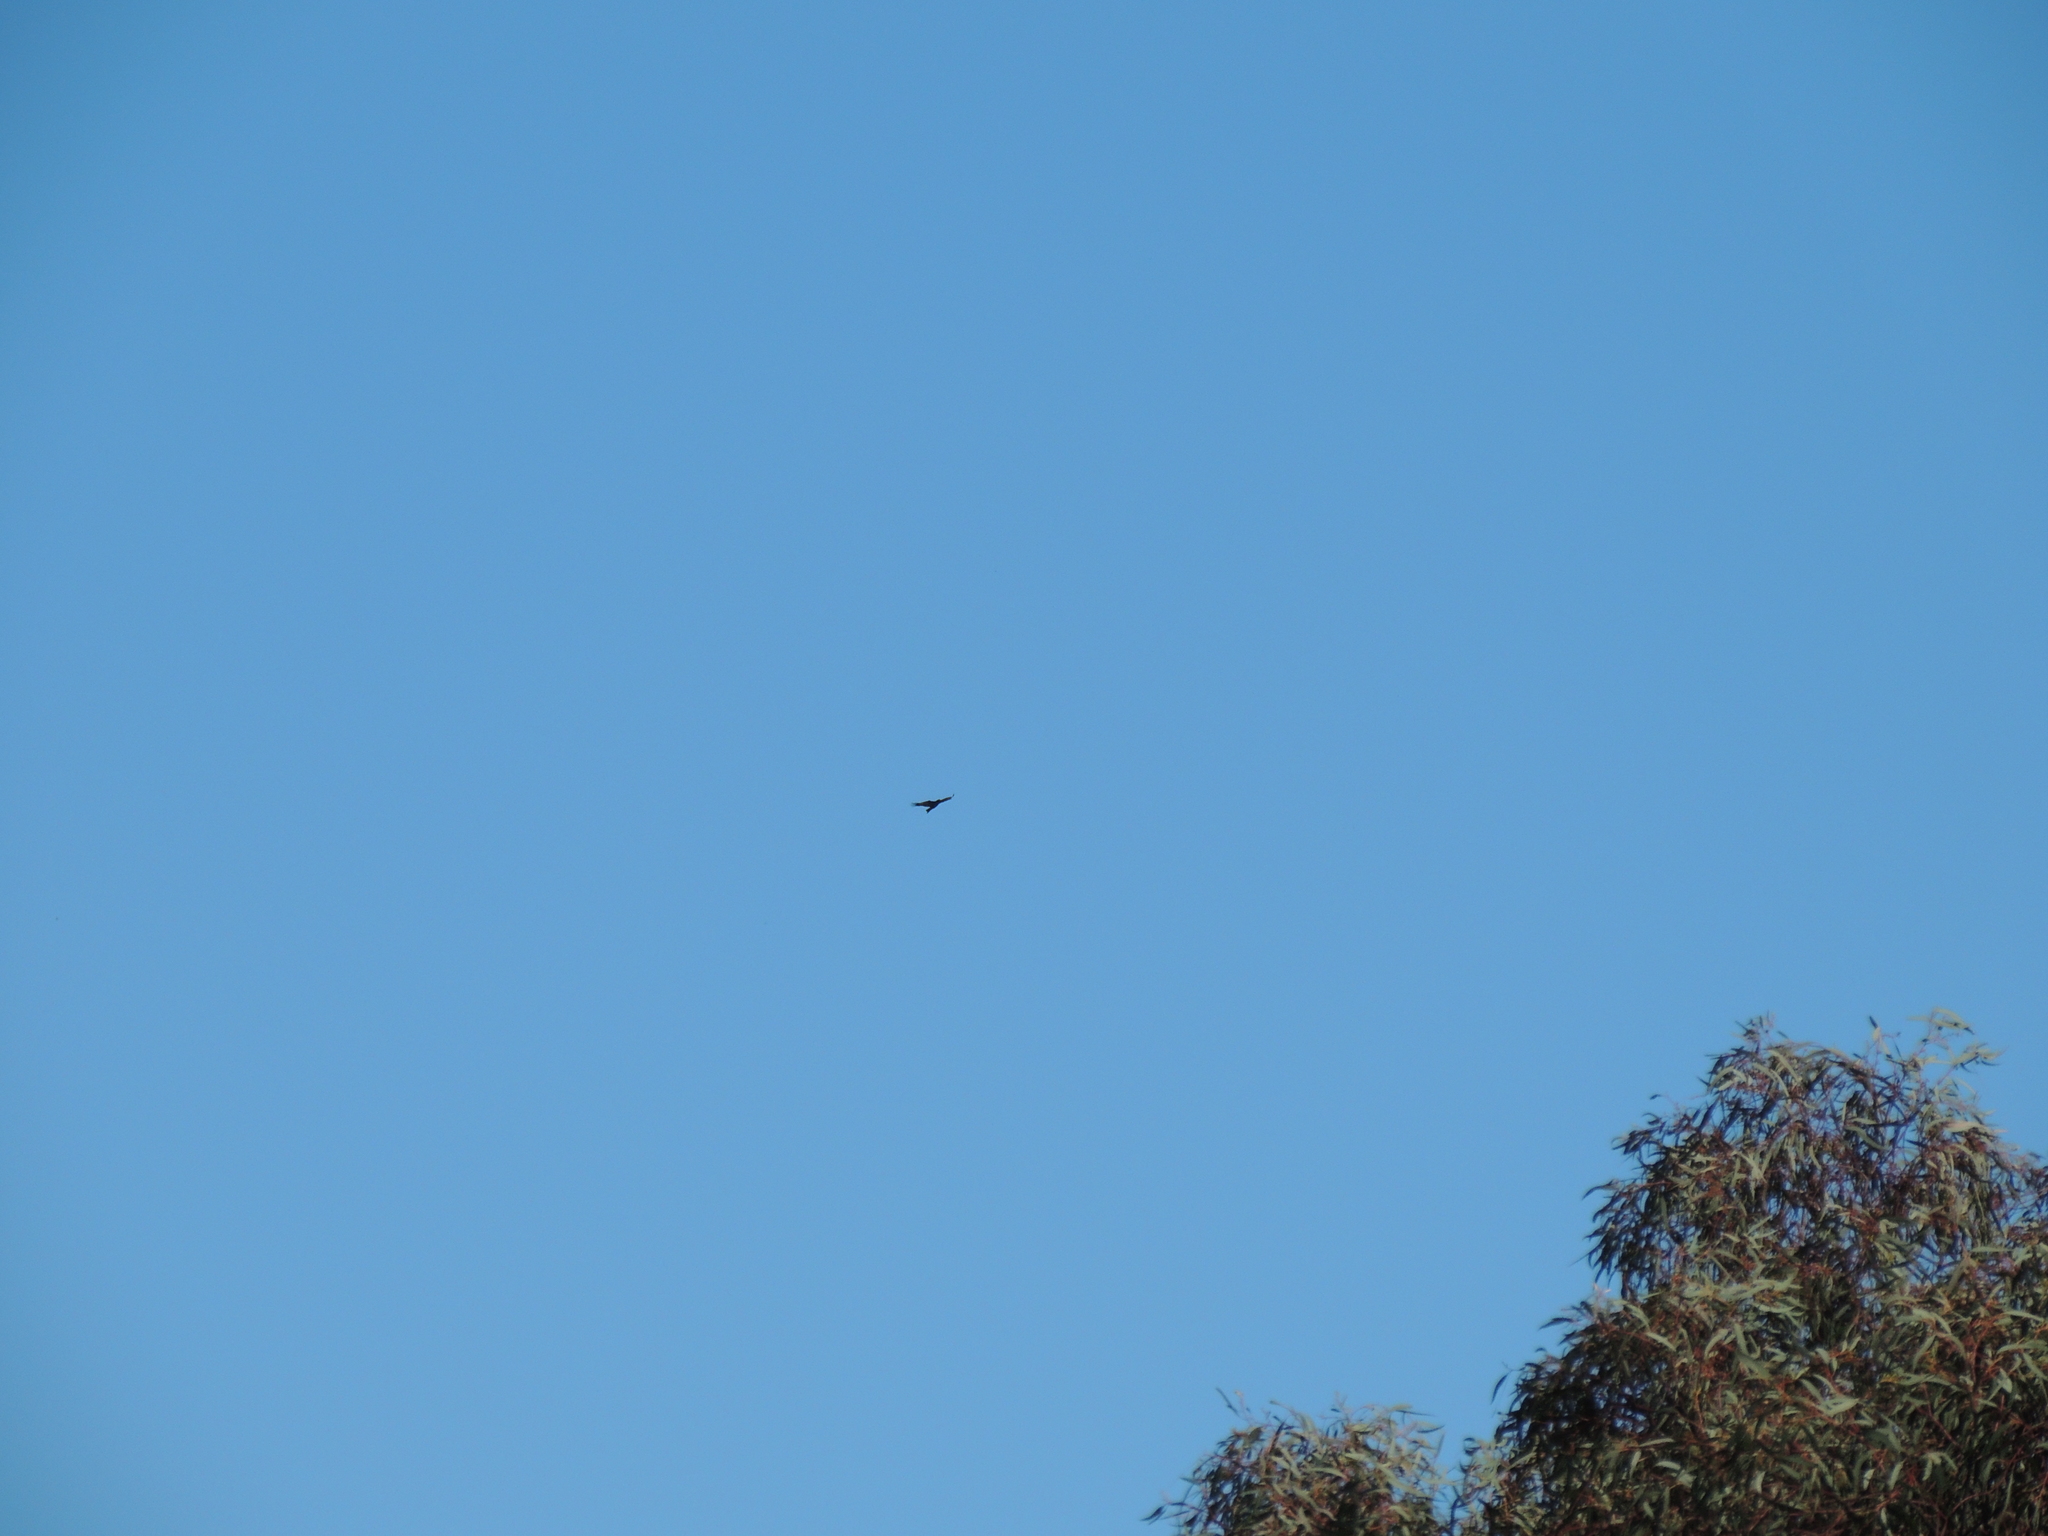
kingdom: Animalia
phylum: Chordata
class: Aves
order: Accipitriformes
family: Accipitridae
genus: Aquila
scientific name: Aquila audax
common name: Wedge-tailed eagle
